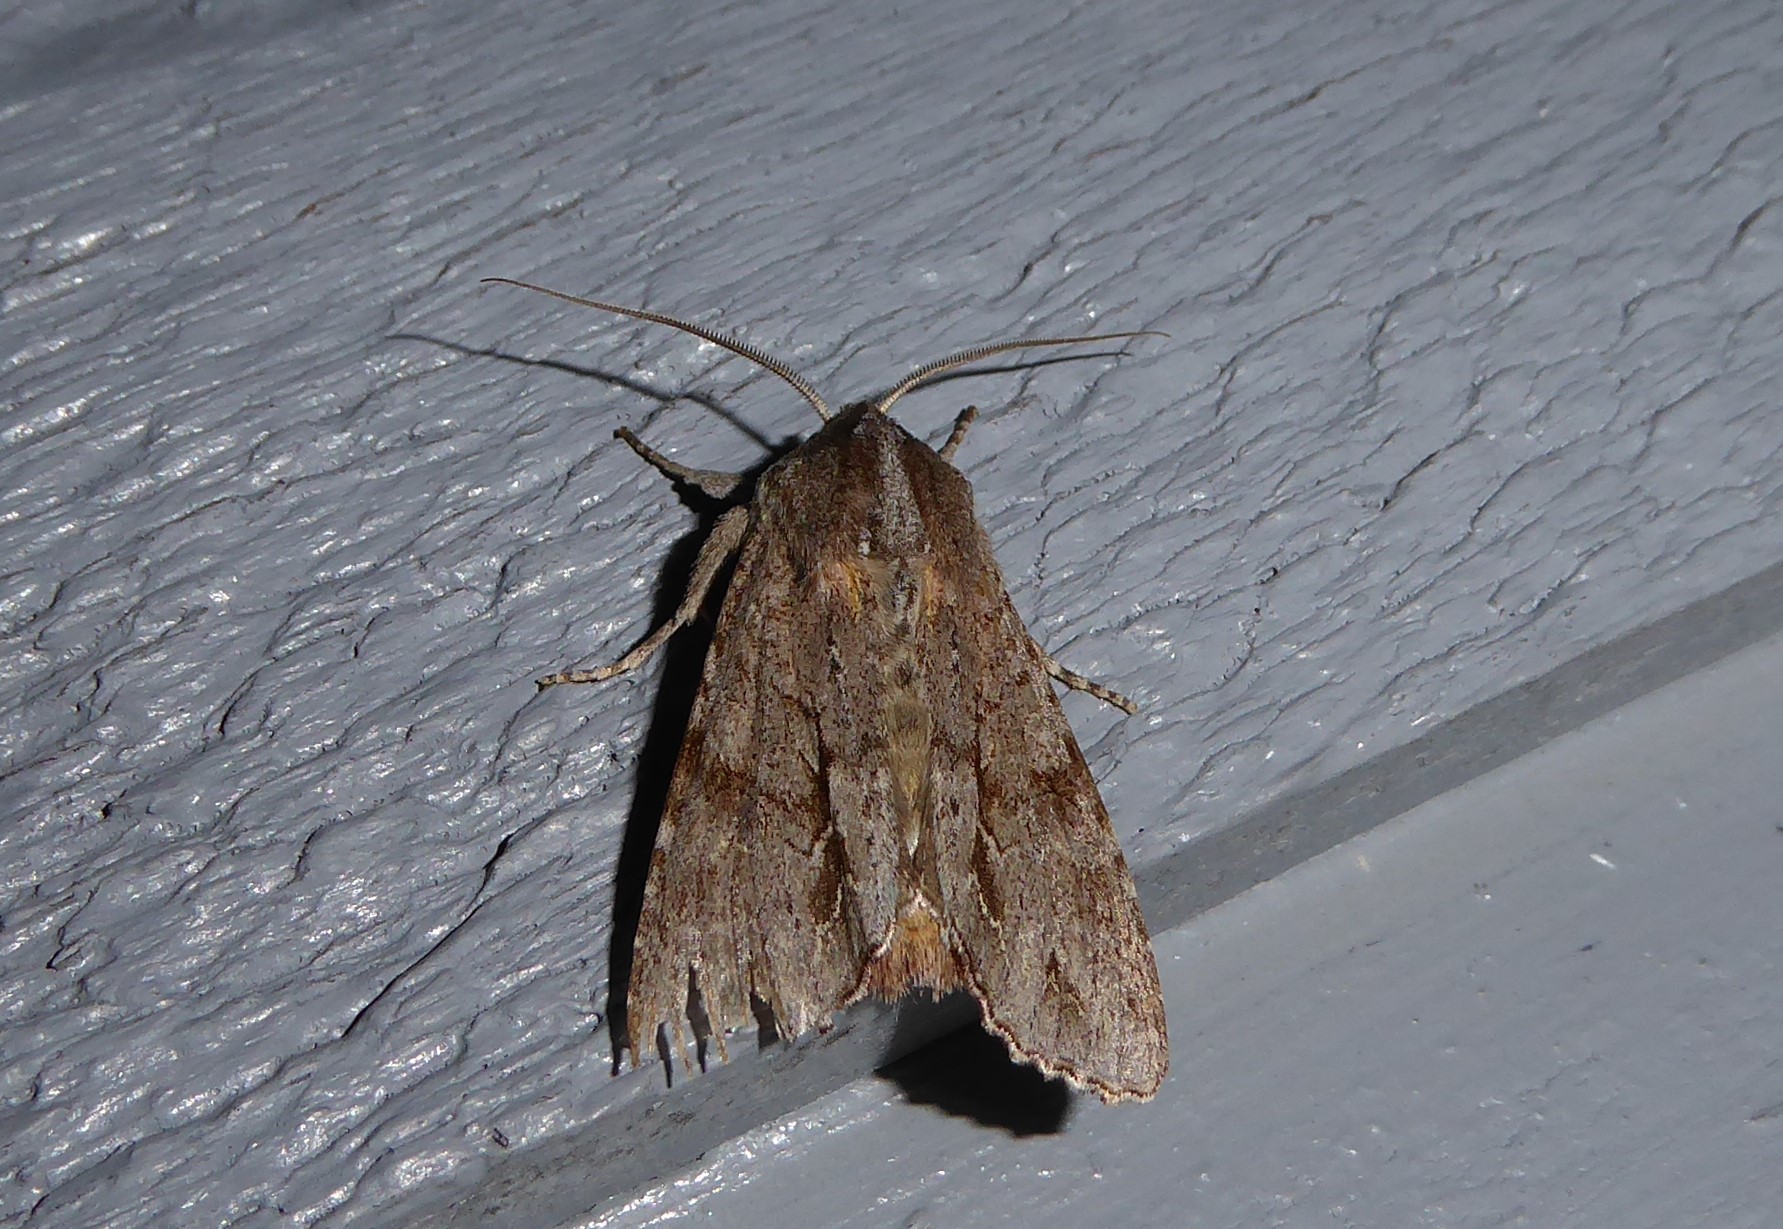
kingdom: Animalia
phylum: Arthropoda
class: Insecta
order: Lepidoptera
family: Noctuidae
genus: Ichneutica
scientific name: Ichneutica
